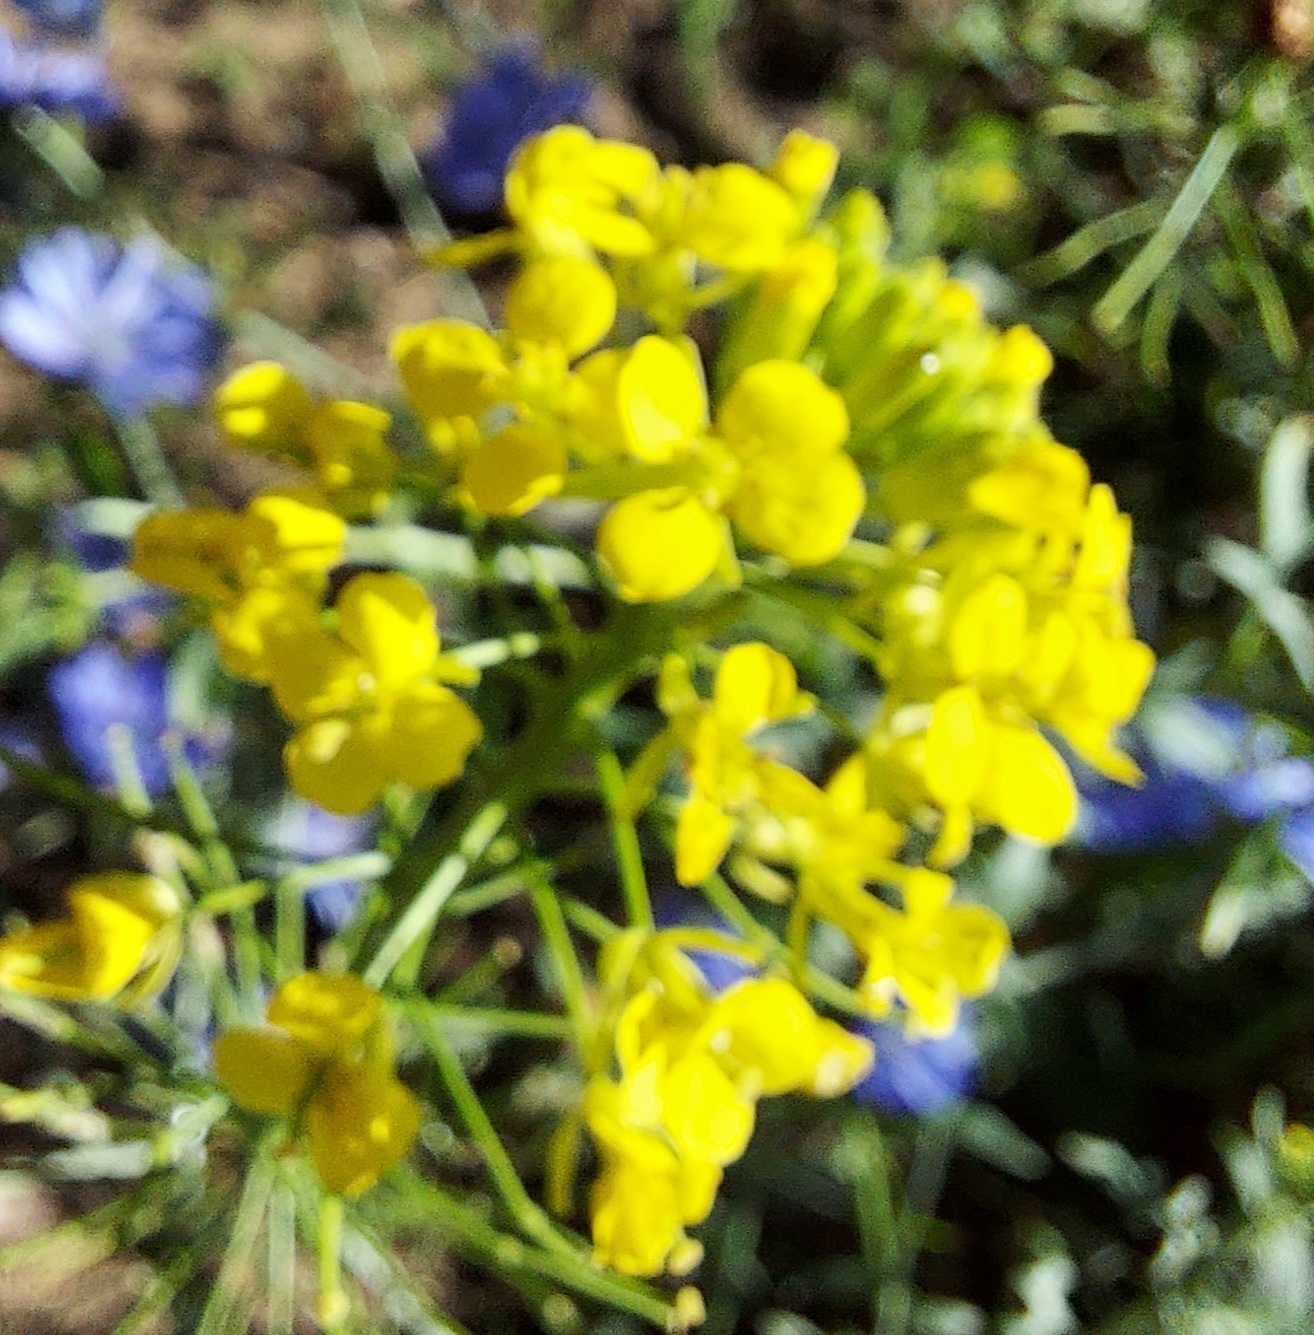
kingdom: Plantae
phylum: Tracheophyta
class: Magnoliopsida
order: Brassicales
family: Brassicaceae
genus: Sisymbrium
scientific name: Sisymbrium loeselii
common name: False london-rocket
